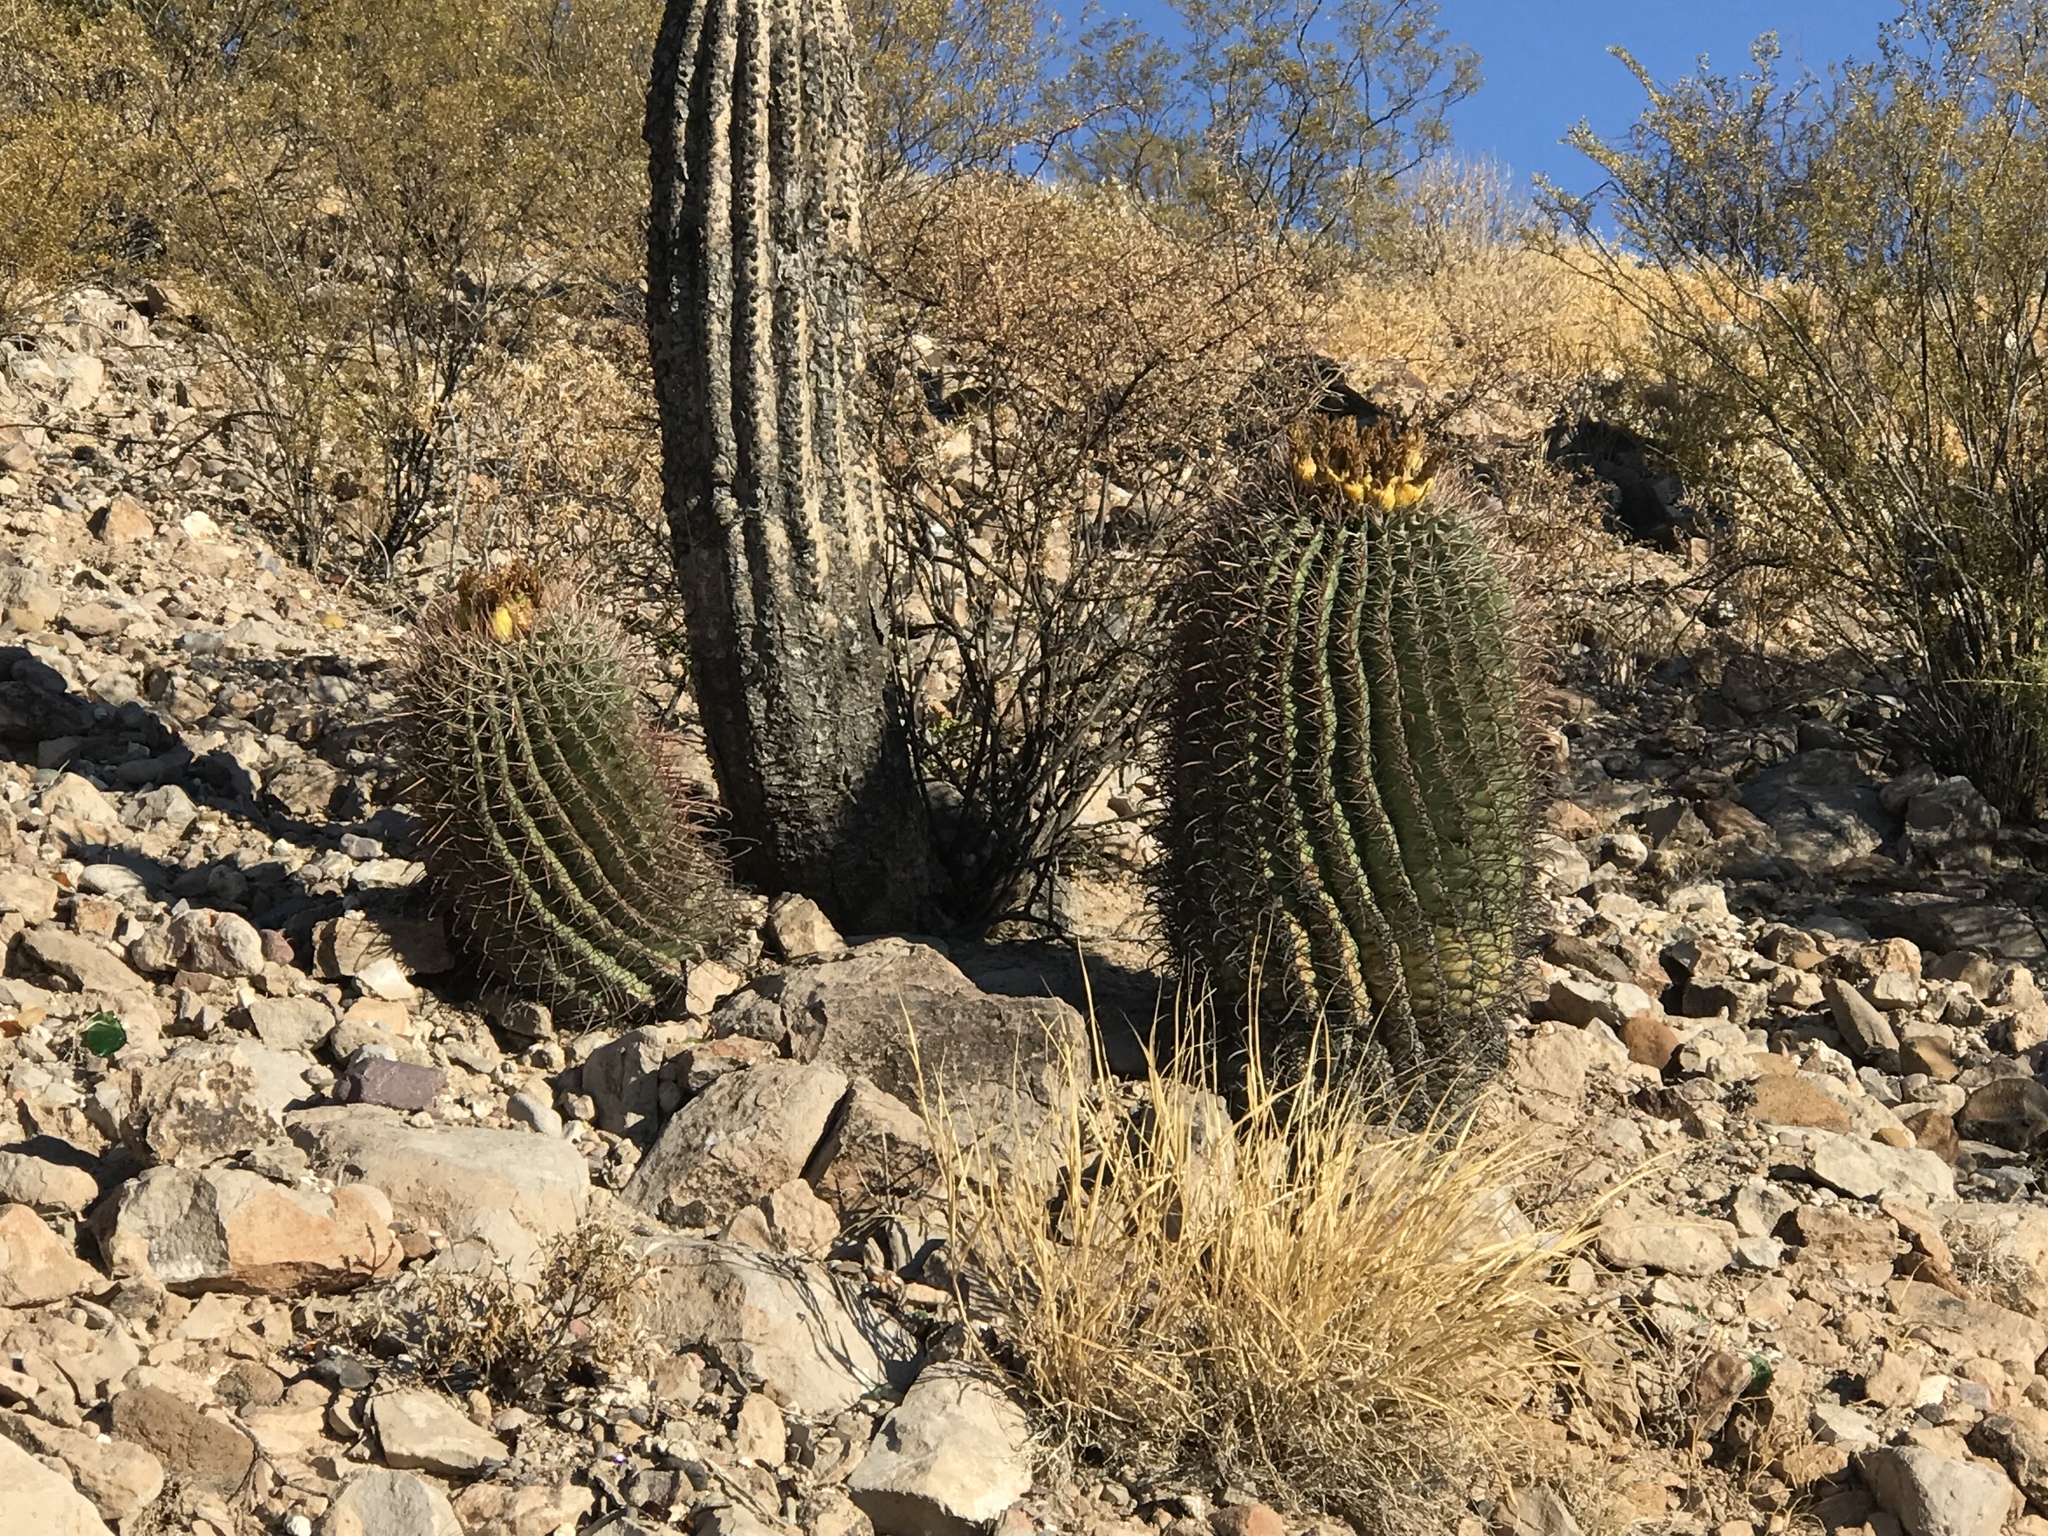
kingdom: Plantae
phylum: Tracheophyta
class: Magnoliopsida
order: Caryophyllales
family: Cactaceae
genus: Ferocactus
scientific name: Ferocactus wislizeni
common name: Candy barrel cactus
